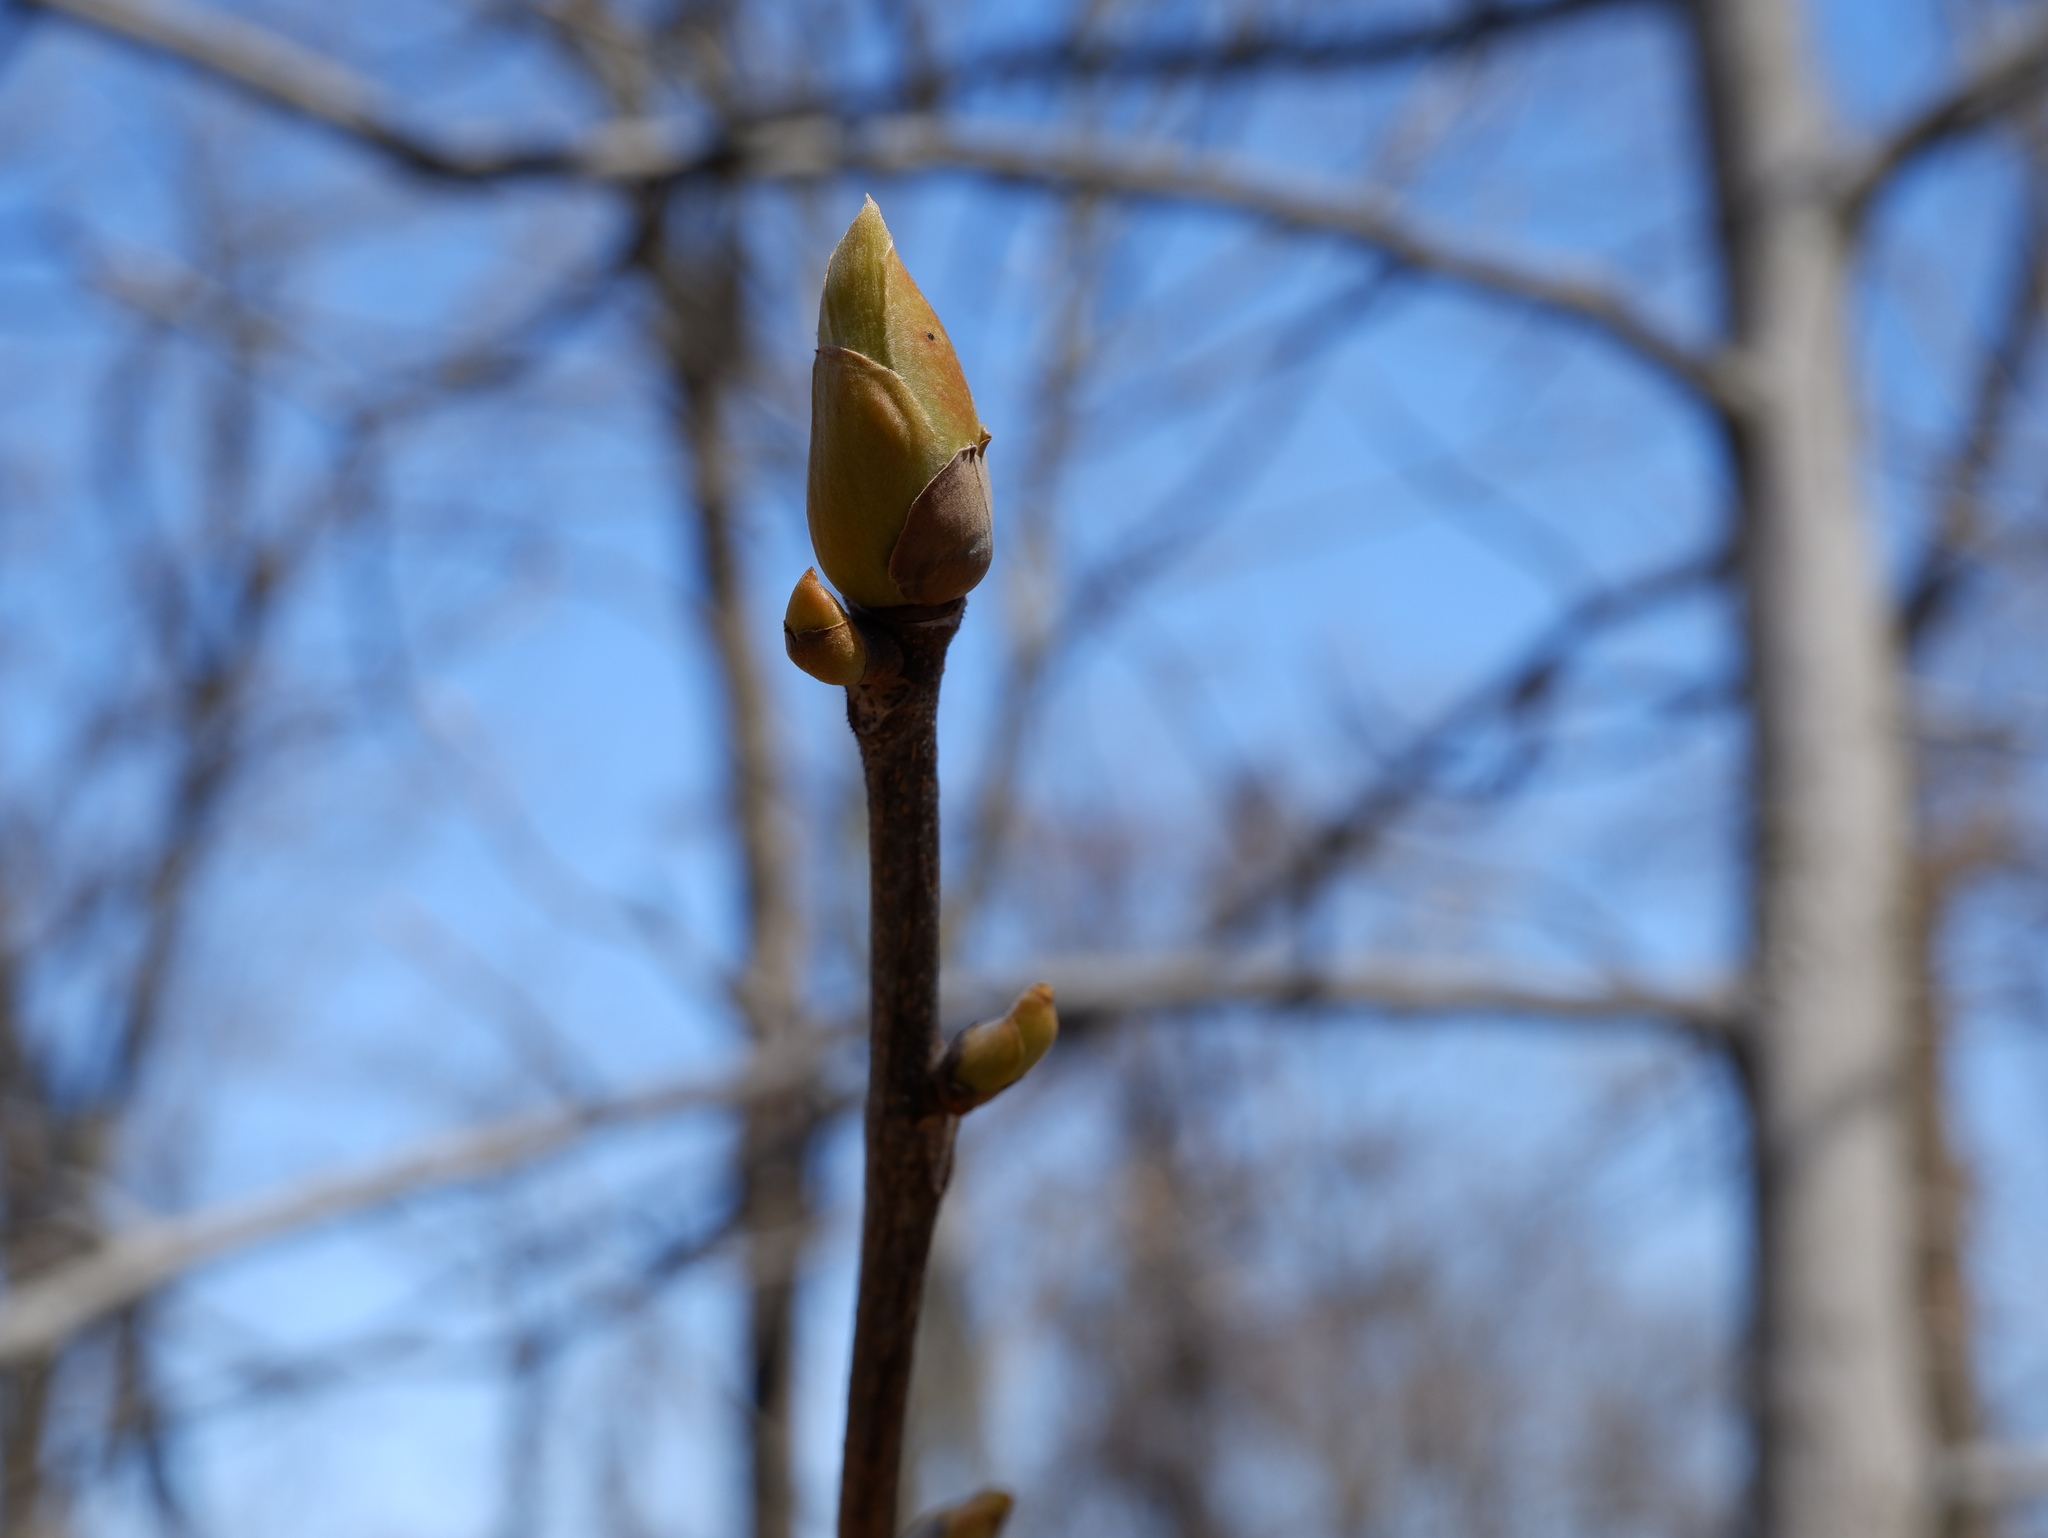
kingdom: Plantae
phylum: Tracheophyta
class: Magnoliopsida
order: Fagales
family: Juglandaceae
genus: Carya
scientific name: Carya alba
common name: Mockernut hickory
